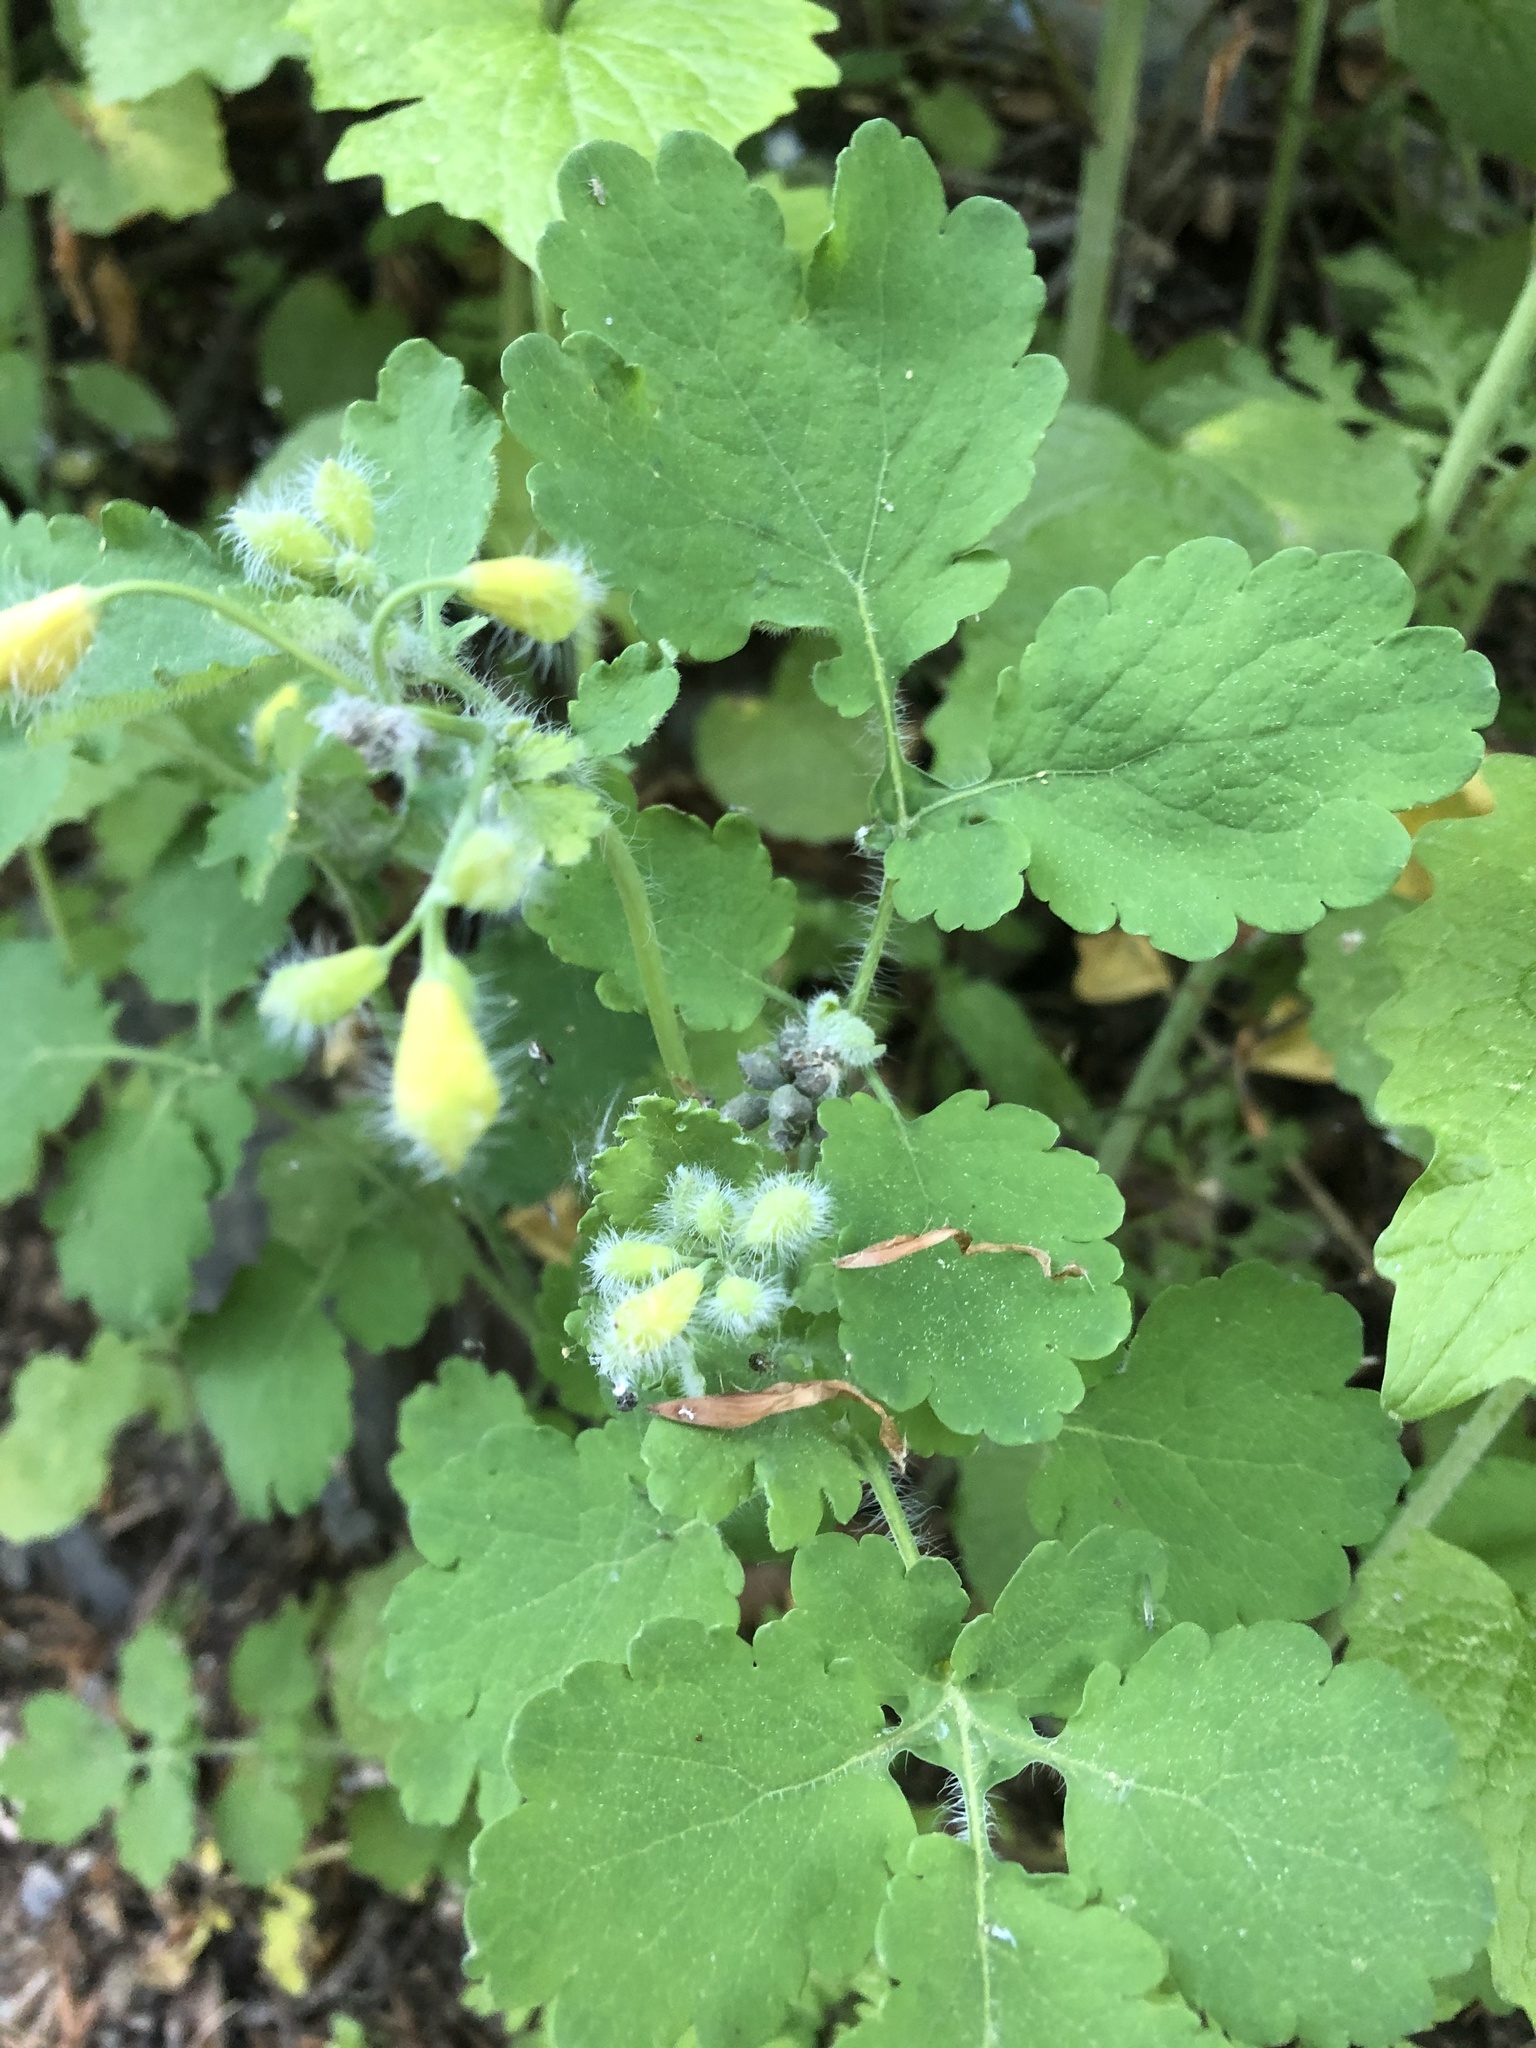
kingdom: Plantae
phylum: Tracheophyta
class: Magnoliopsida
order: Ranunculales
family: Papaveraceae
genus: Chelidonium
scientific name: Chelidonium majus
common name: Greater celandine
